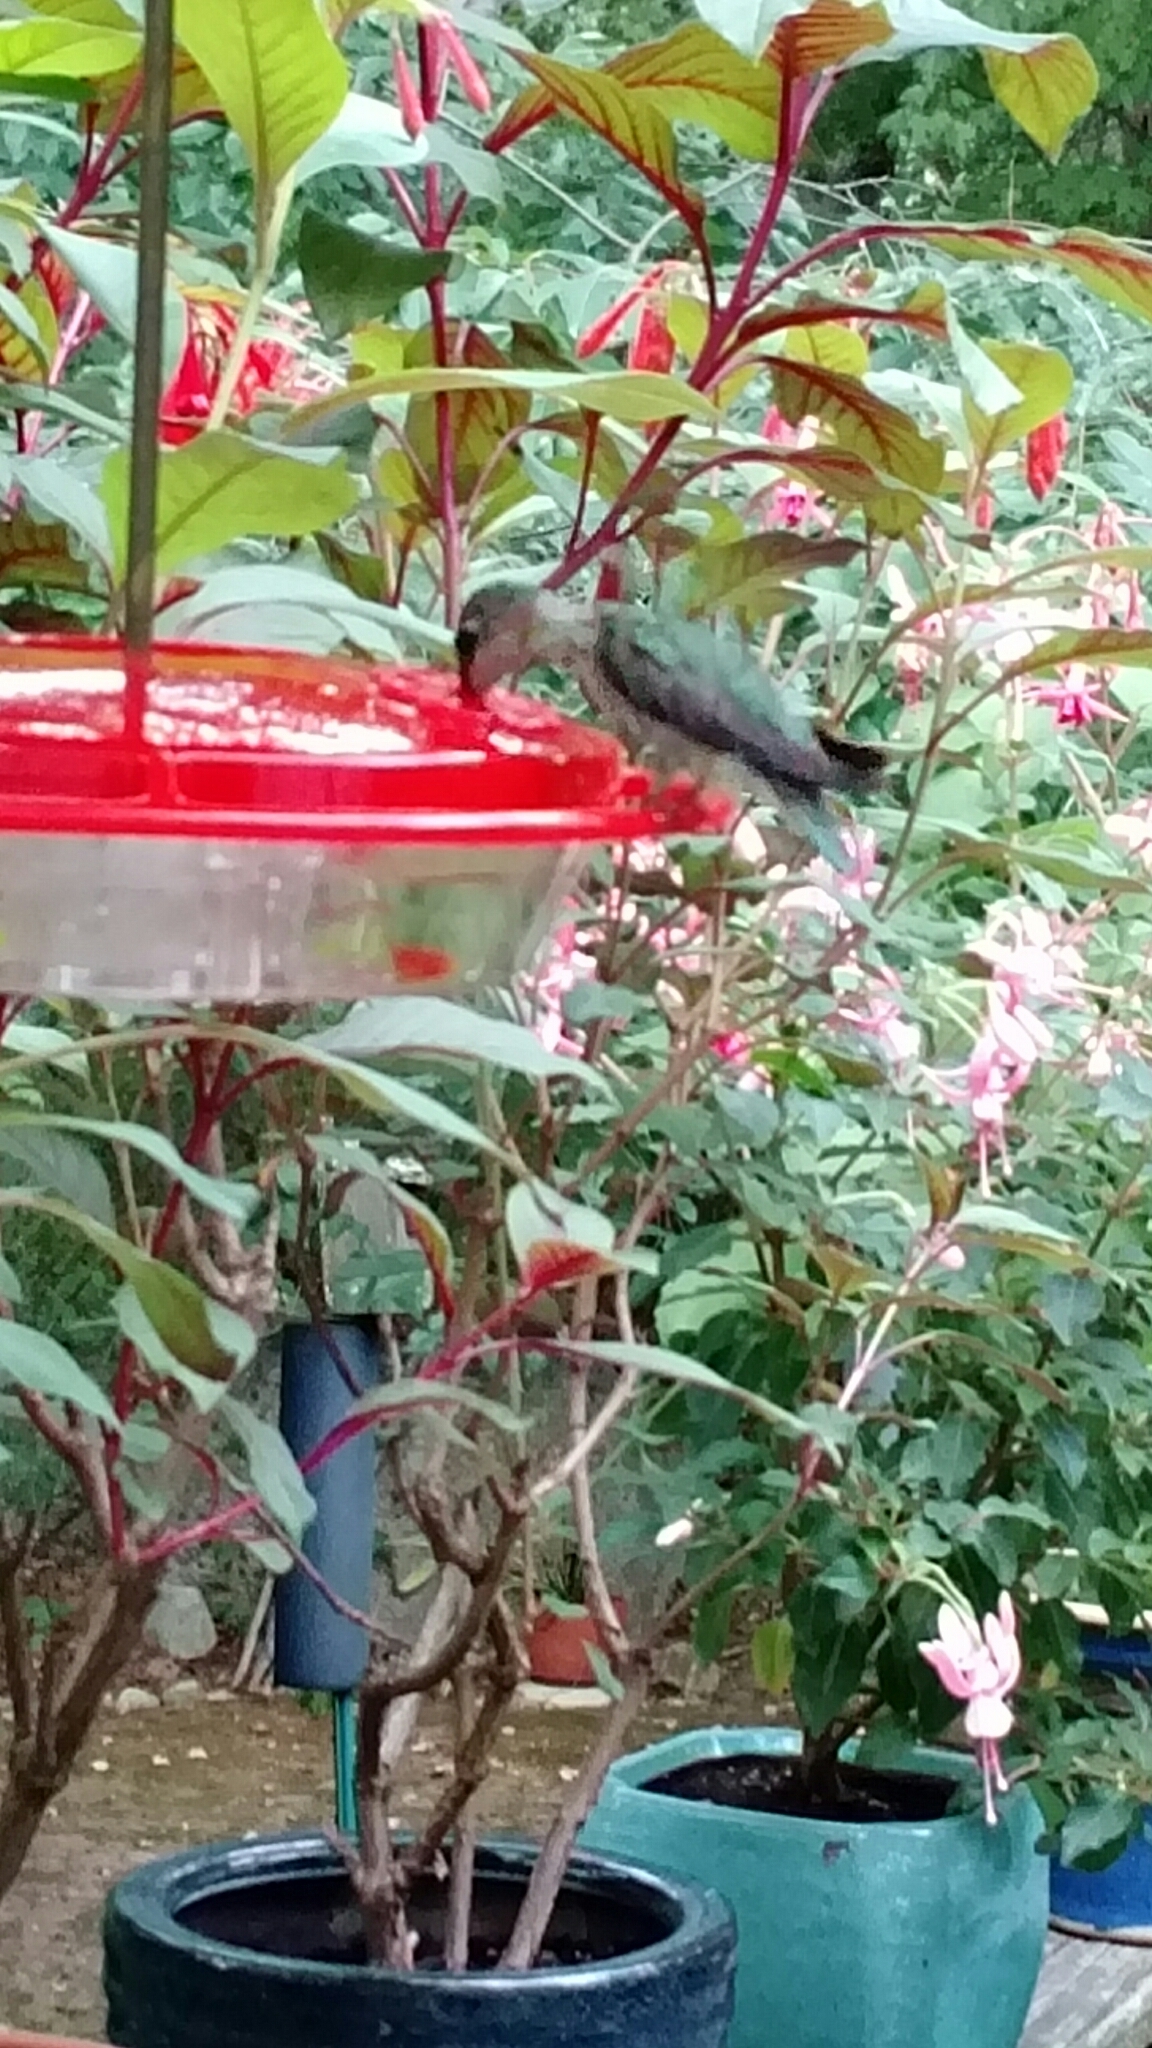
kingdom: Animalia
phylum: Chordata
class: Aves
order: Apodiformes
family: Trochilidae
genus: Archilochus
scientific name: Archilochus colubris
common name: Ruby-throated hummingbird
